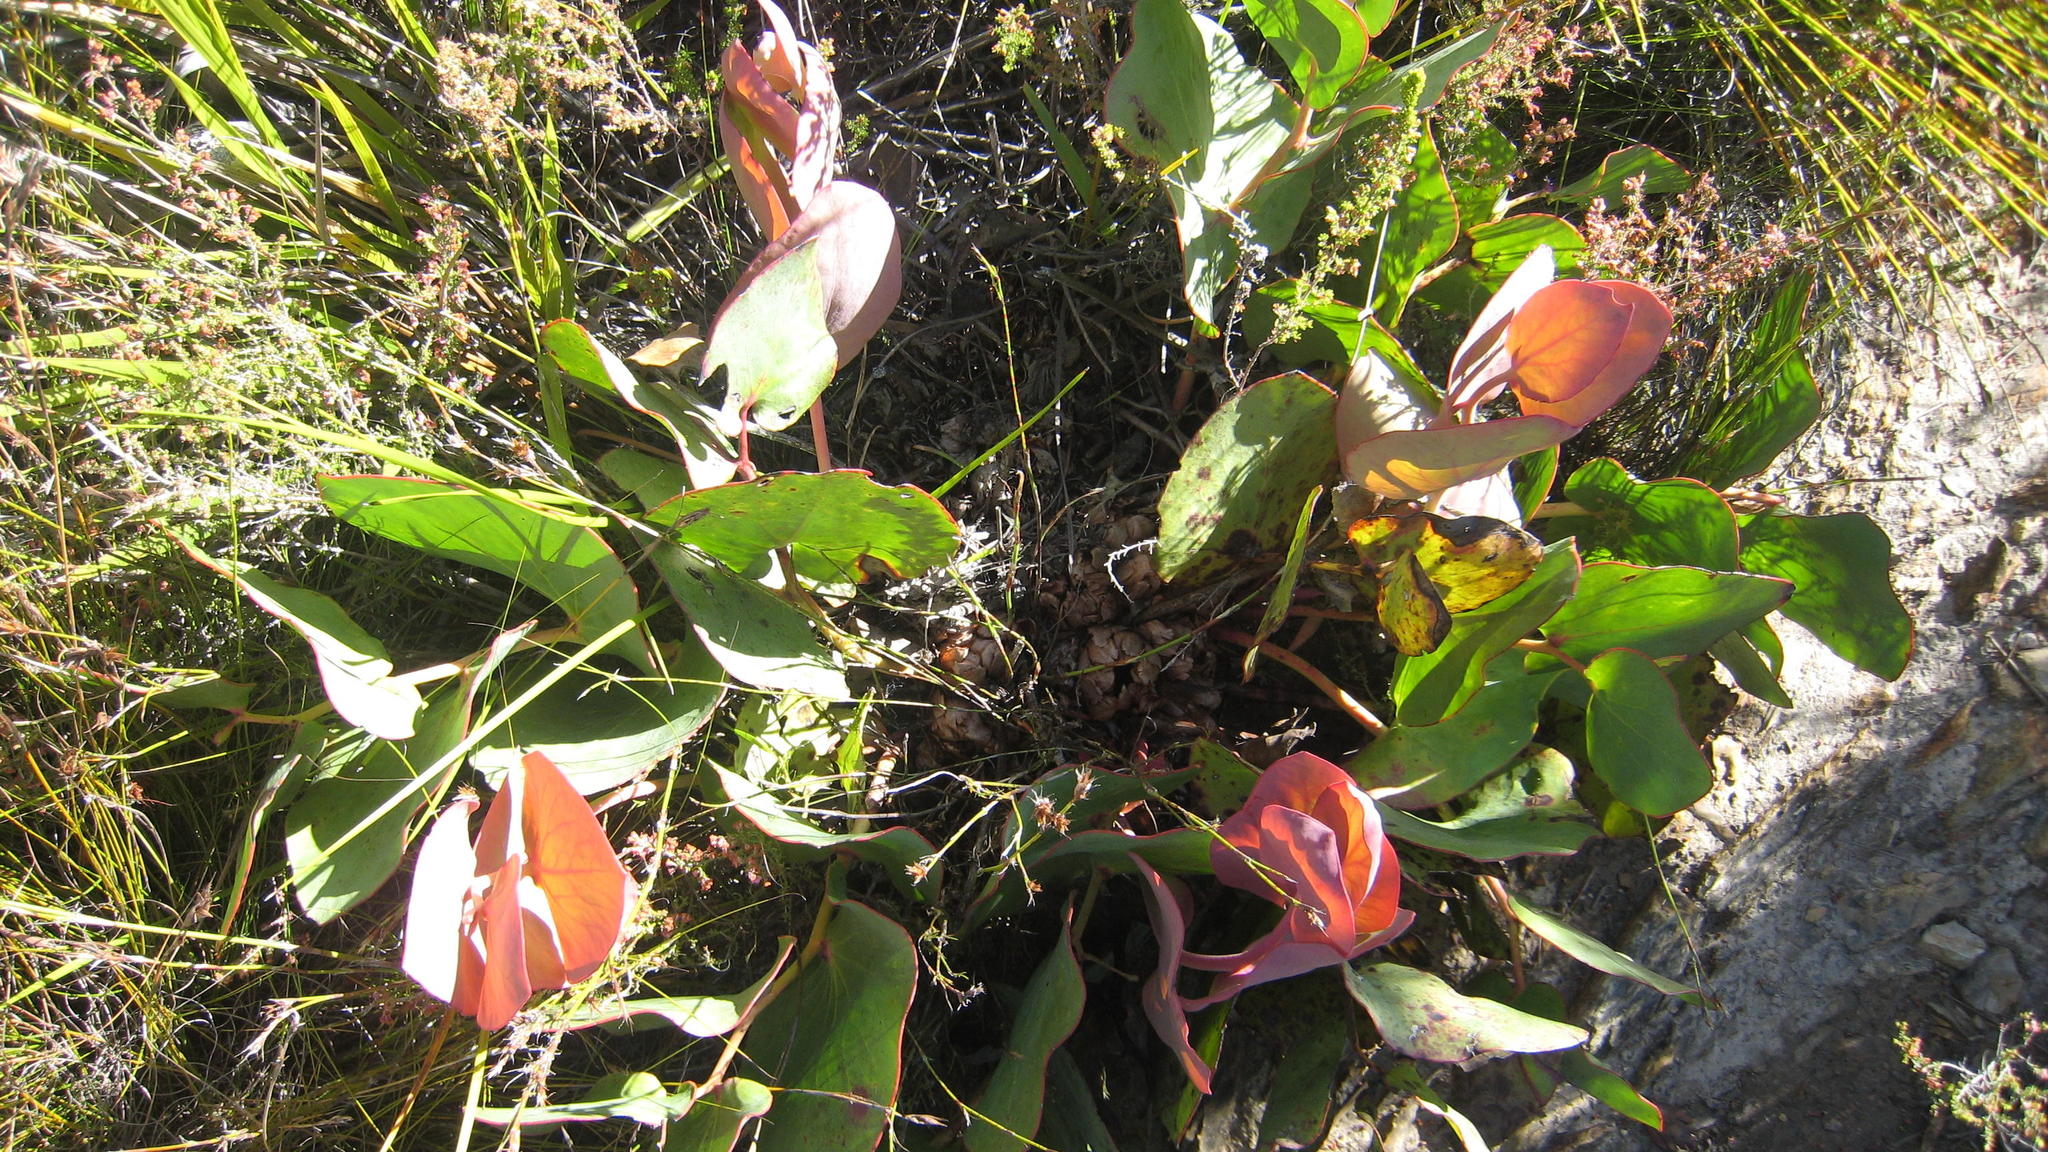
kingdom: Plantae
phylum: Tracheophyta
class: Magnoliopsida
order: Proteales
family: Proteaceae
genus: Protea
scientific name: Protea cordata
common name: Heart-leaf sugarbush
